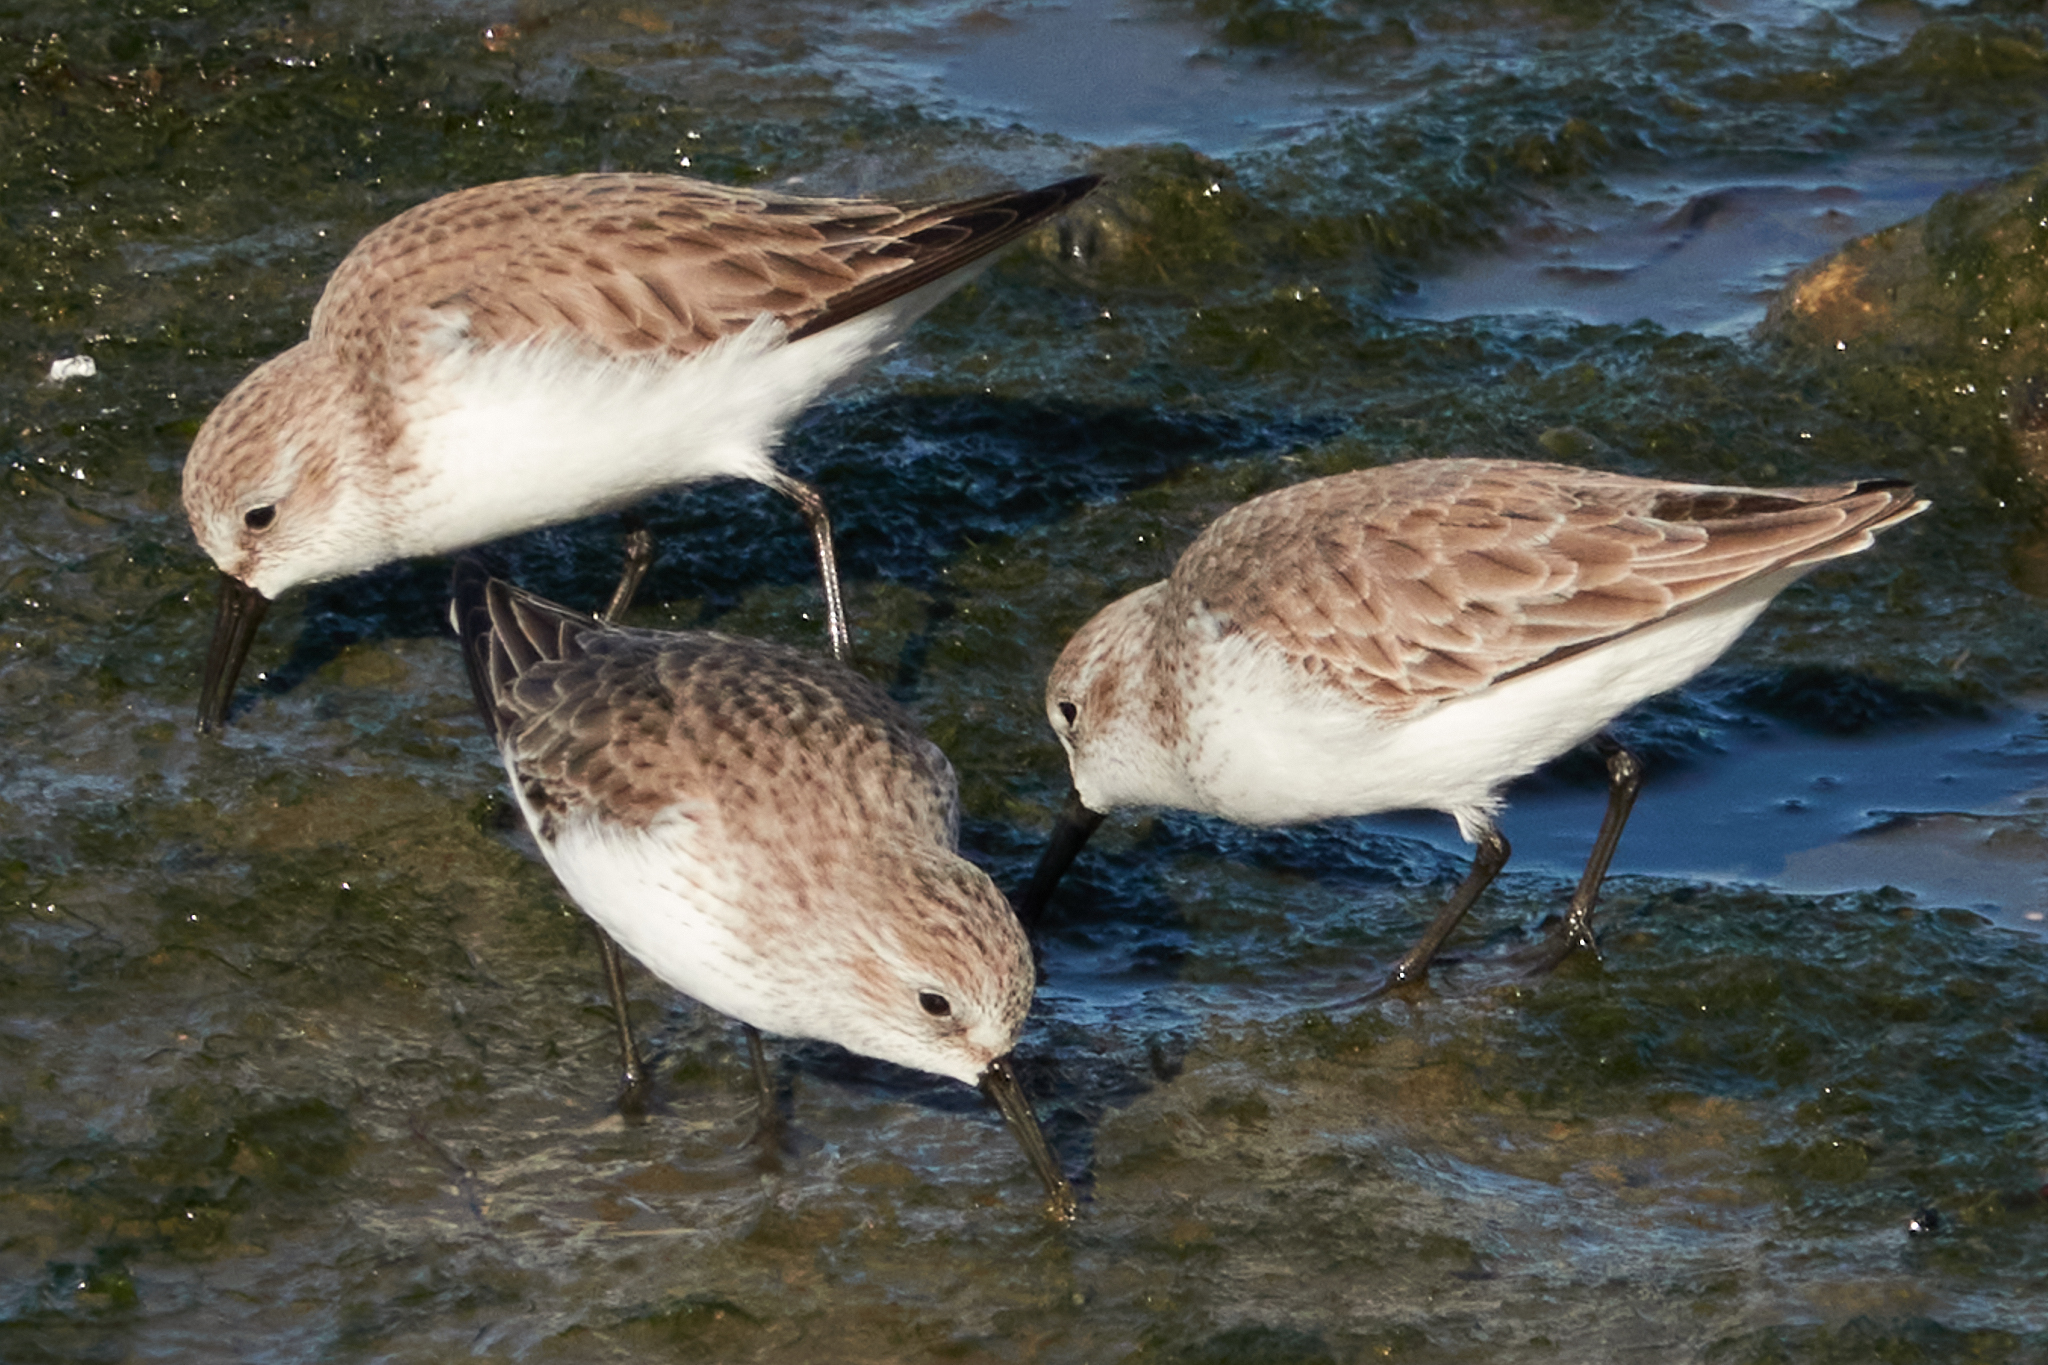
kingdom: Animalia
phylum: Chordata
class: Aves
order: Charadriiformes
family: Scolopacidae
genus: Calidris
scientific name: Calidris mauri
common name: Western sandpiper
